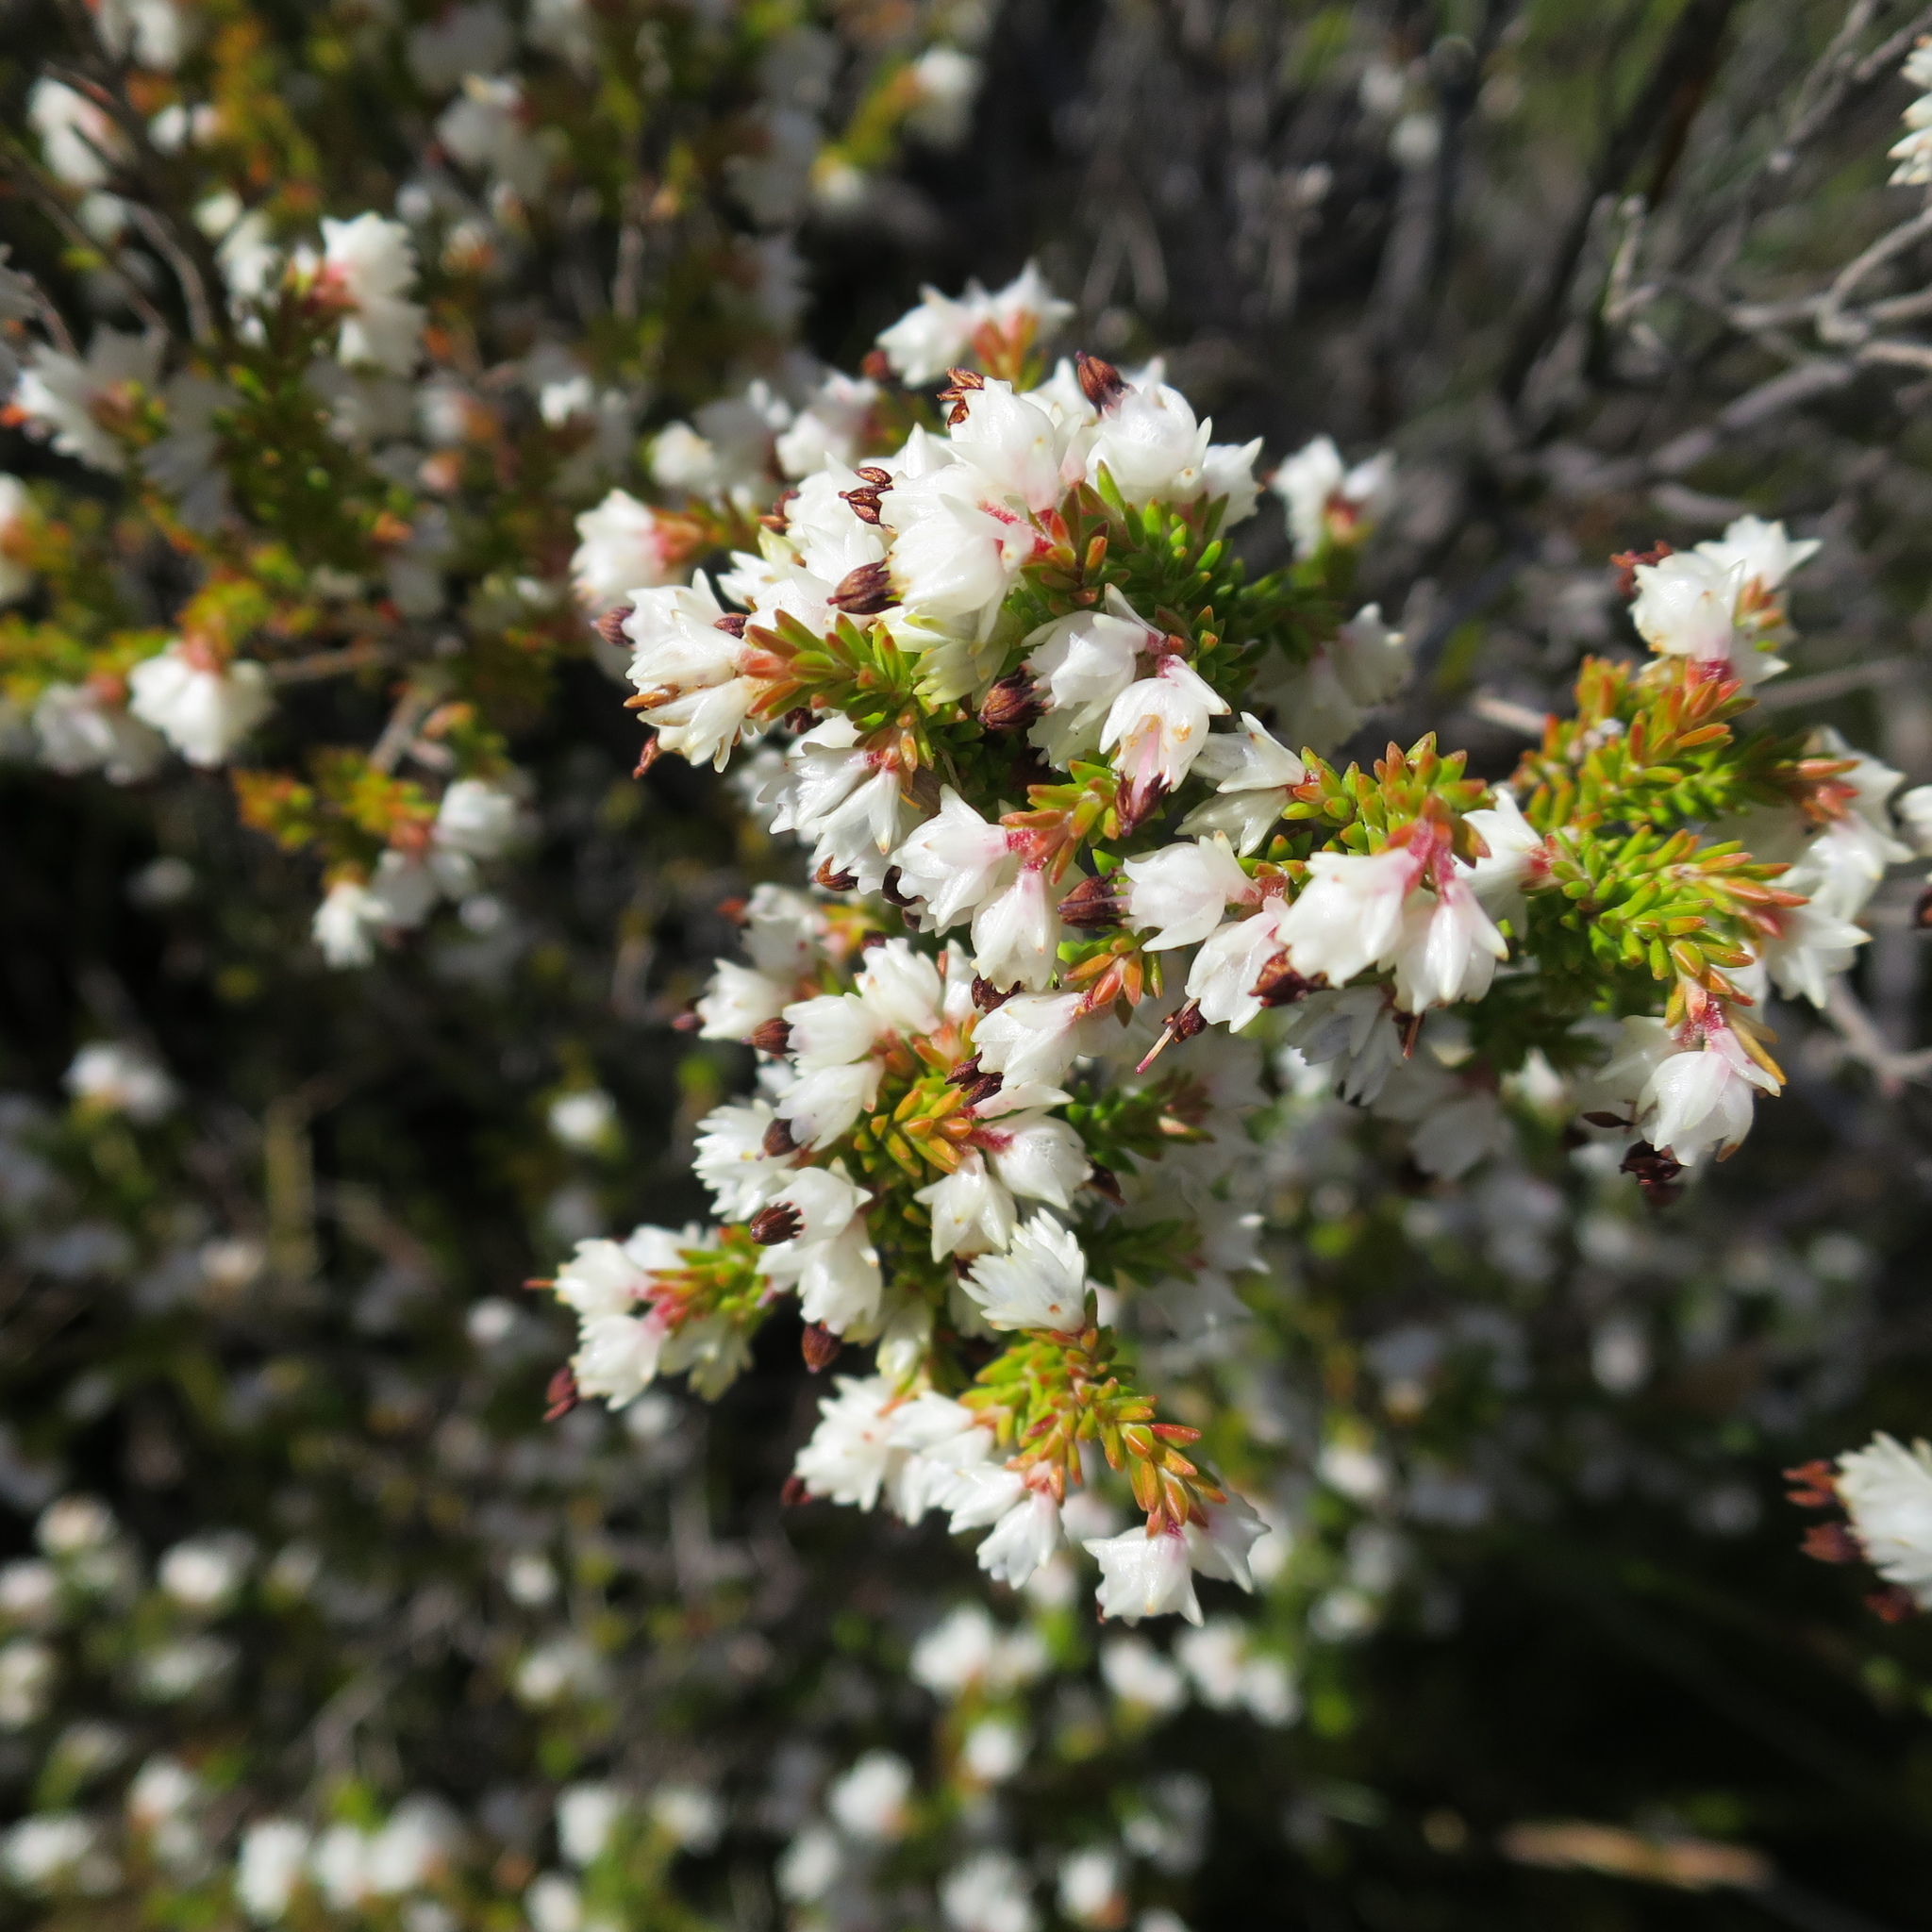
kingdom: Plantae
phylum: Tracheophyta
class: Magnoliopsida
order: Ericales
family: Ericaceae
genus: Erica
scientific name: Erica triceps
